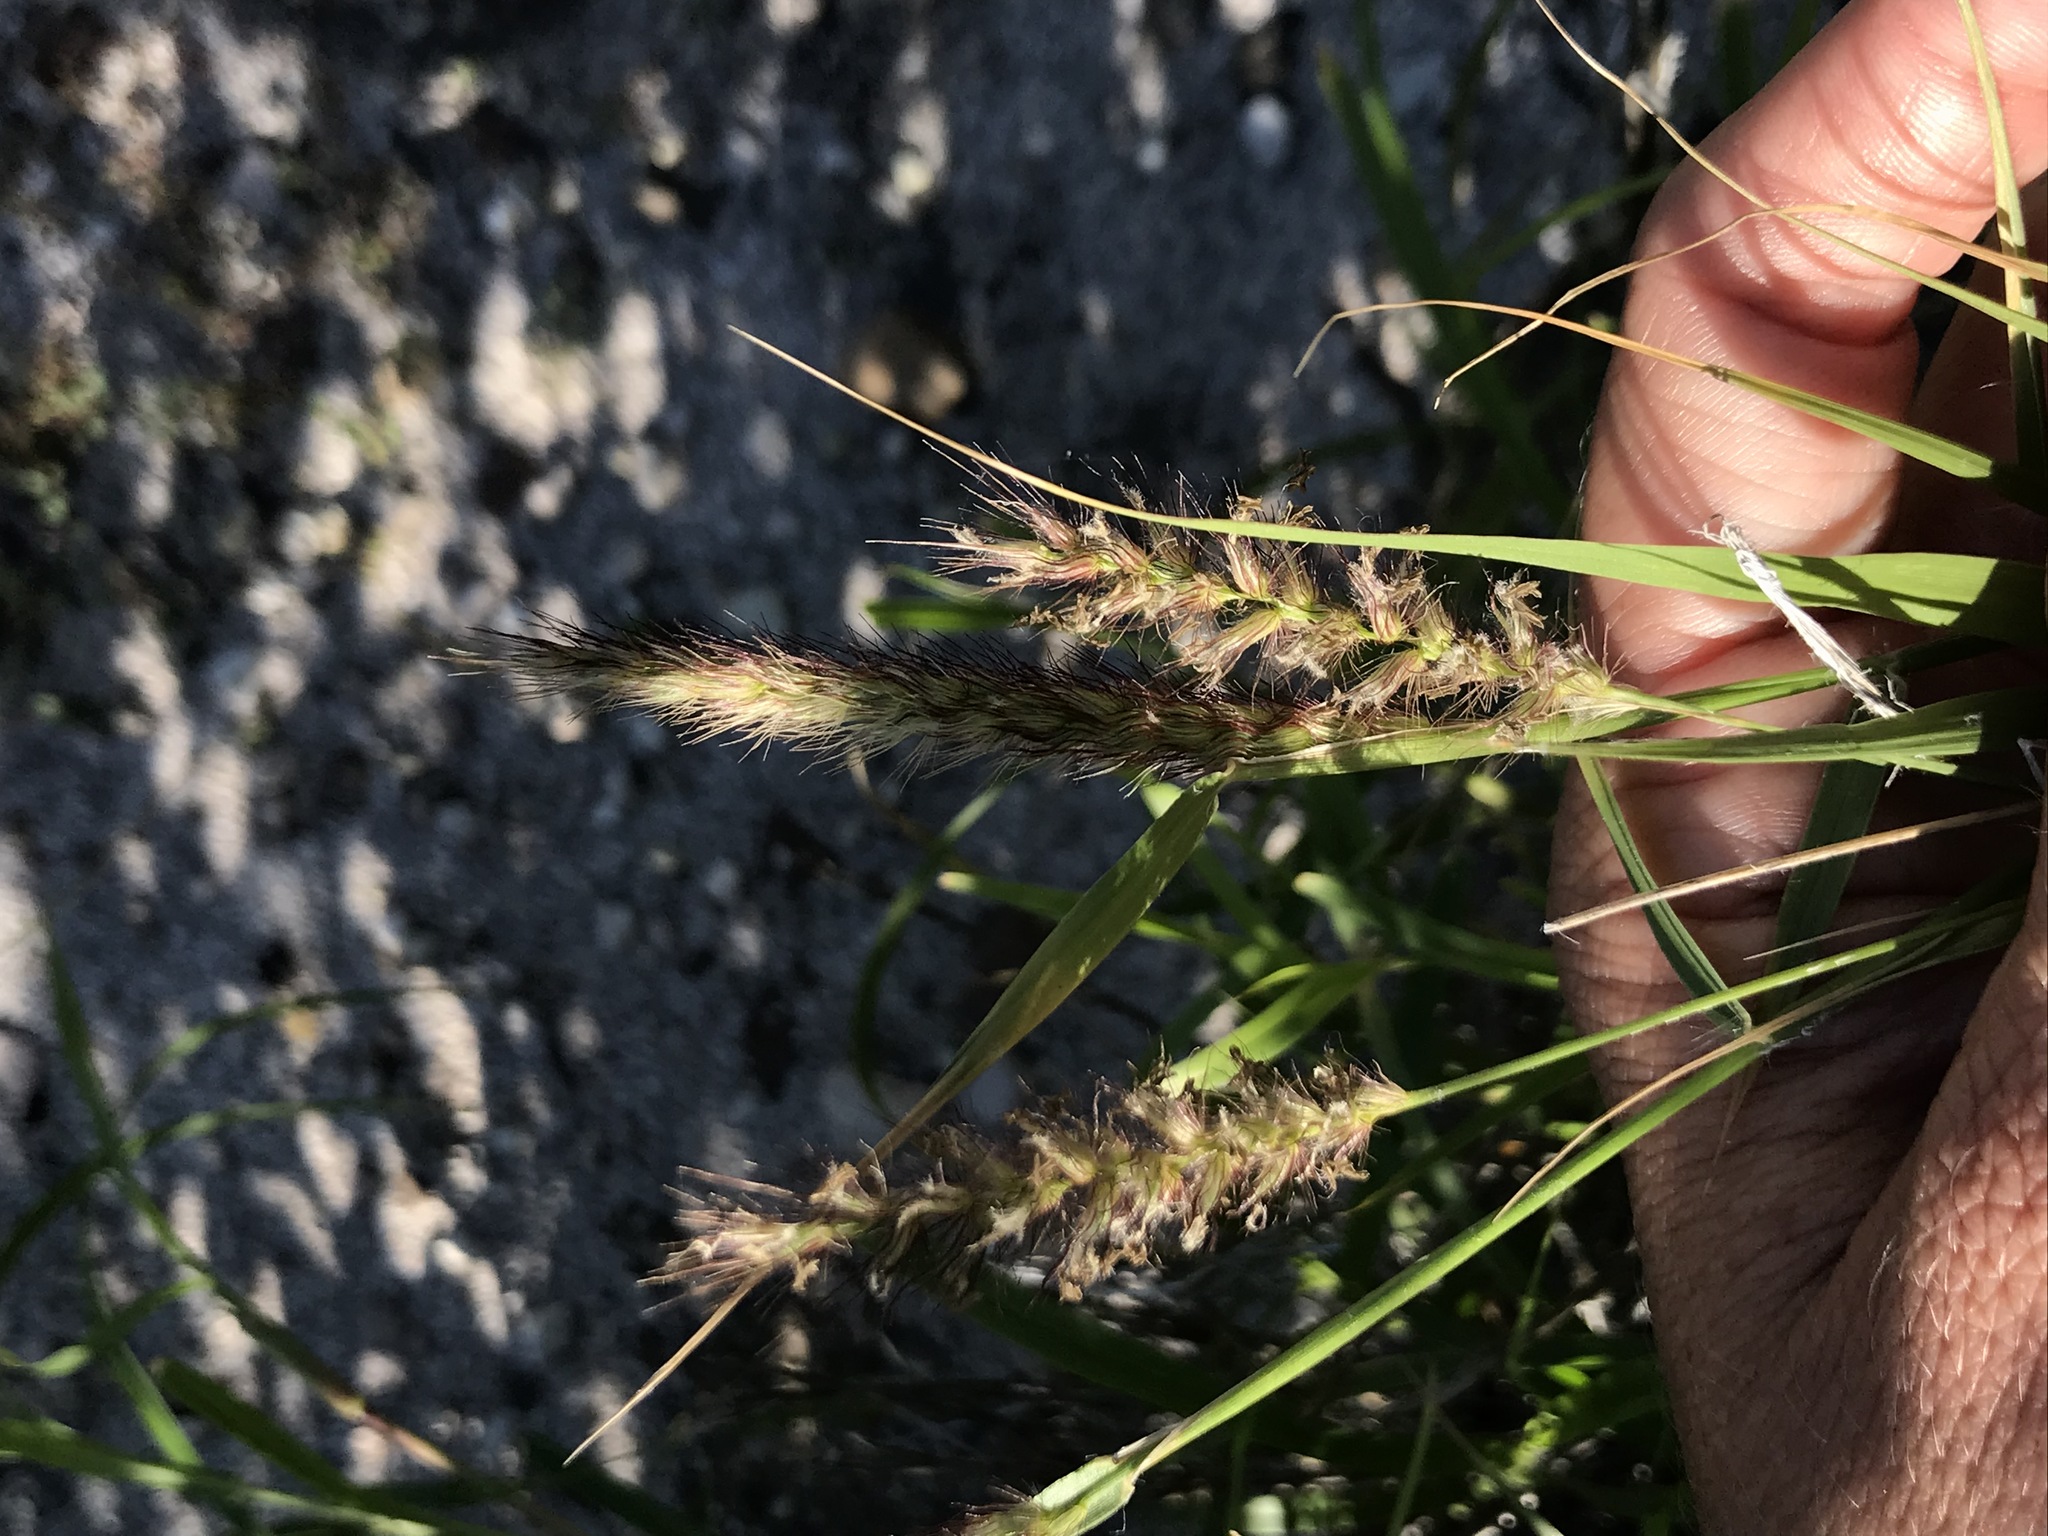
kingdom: Plantae
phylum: Tracheophyta
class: Liliopsida
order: Poales
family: Poaceae
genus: Cenchrus
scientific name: Cenchrus ciliaris
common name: Buffelgrass
